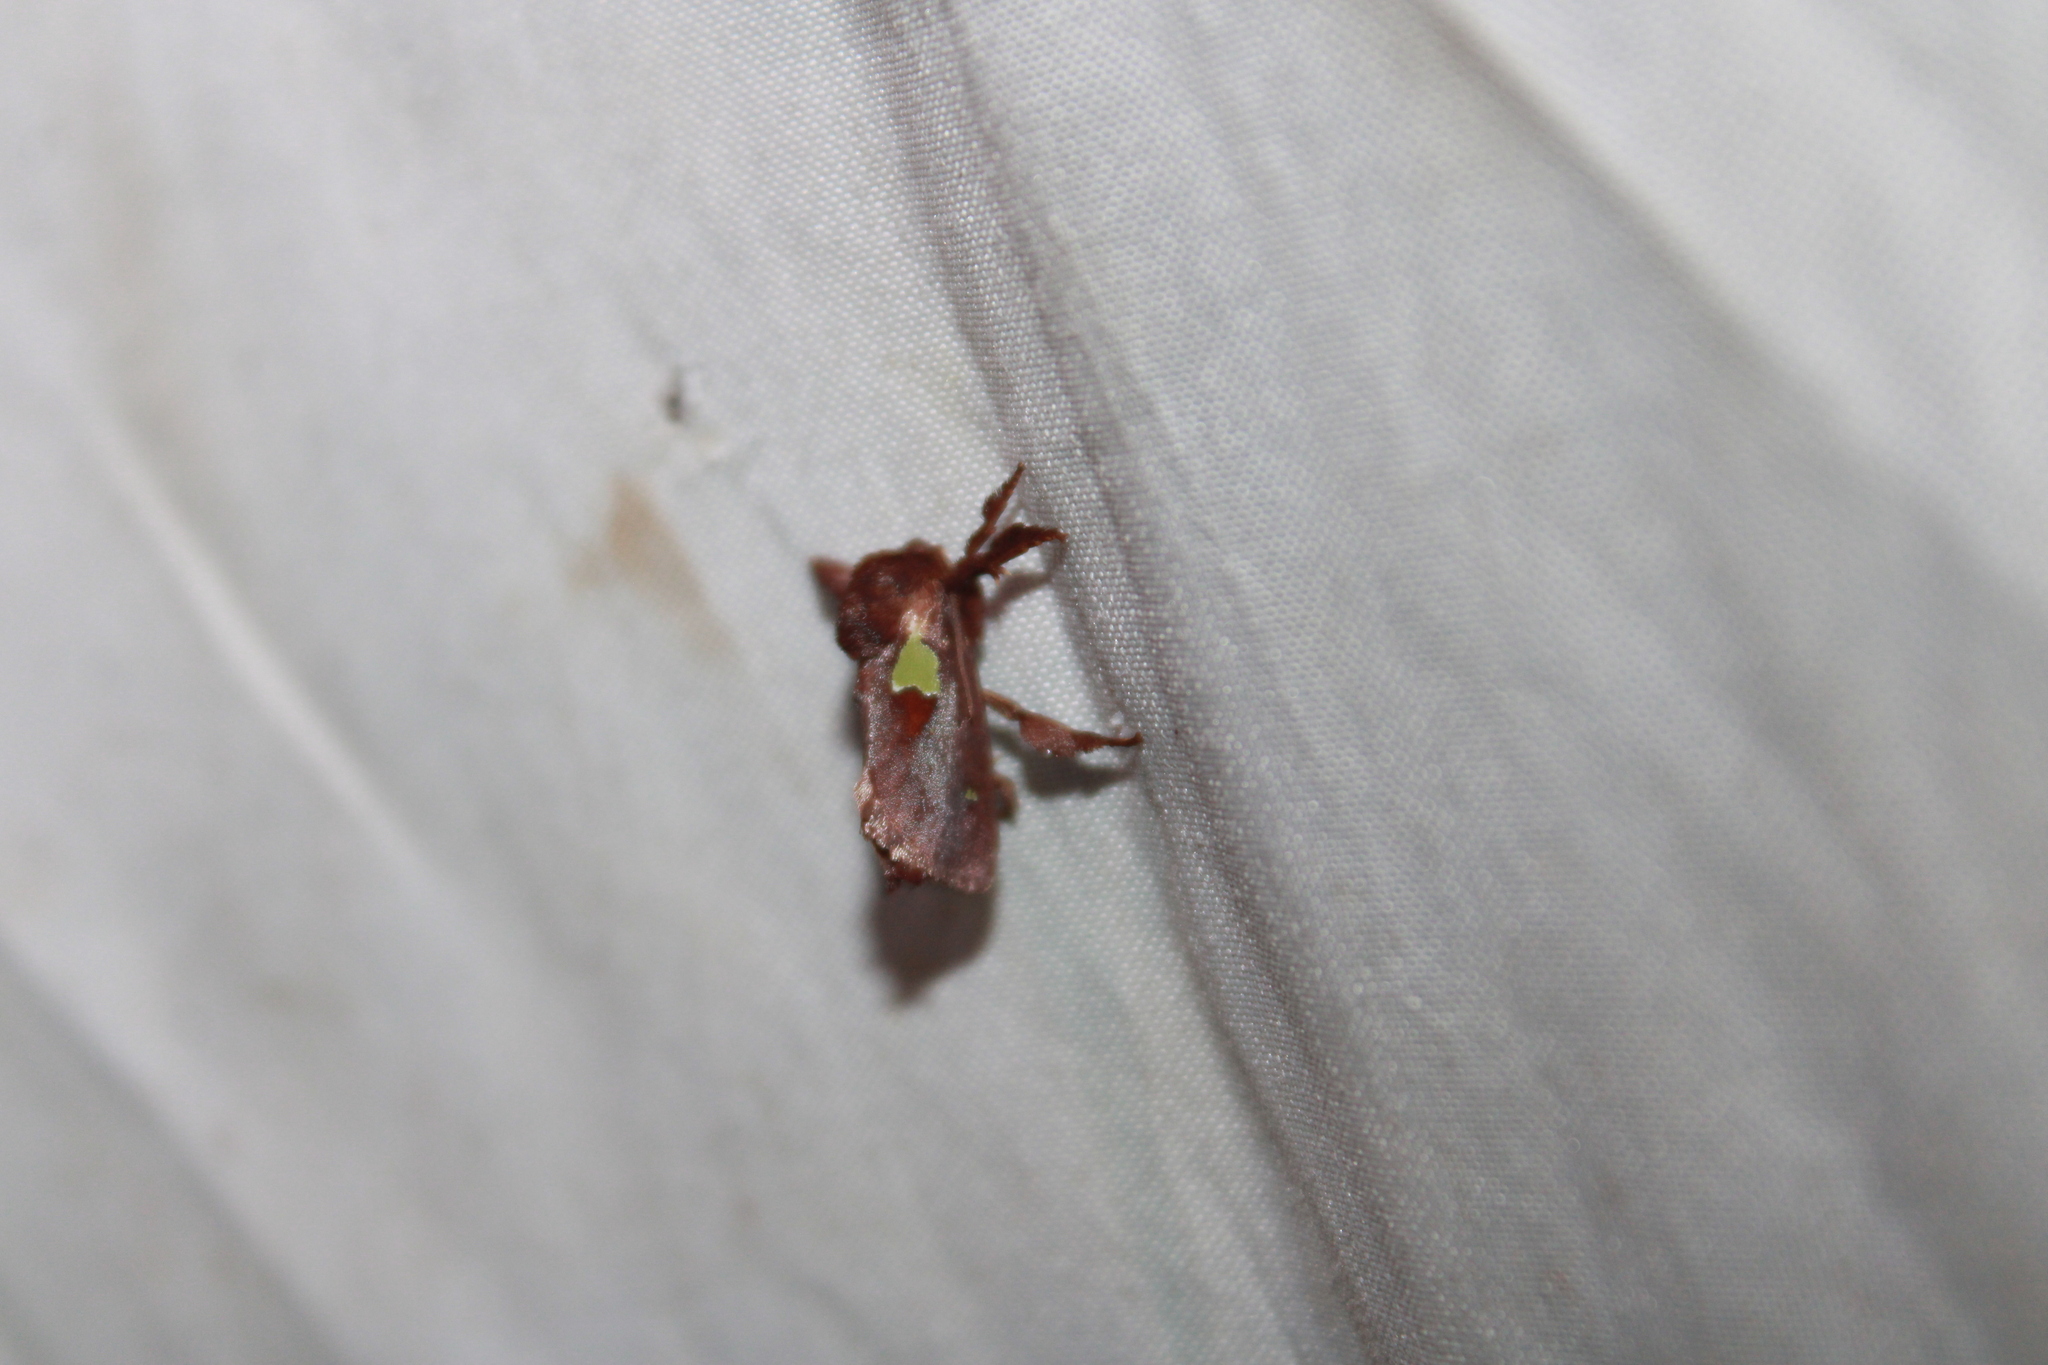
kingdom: Animalia
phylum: Arthropoda
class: Insecta
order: Lepidoptera
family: Limacodidae
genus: Euclea
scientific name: Euclea nanina
